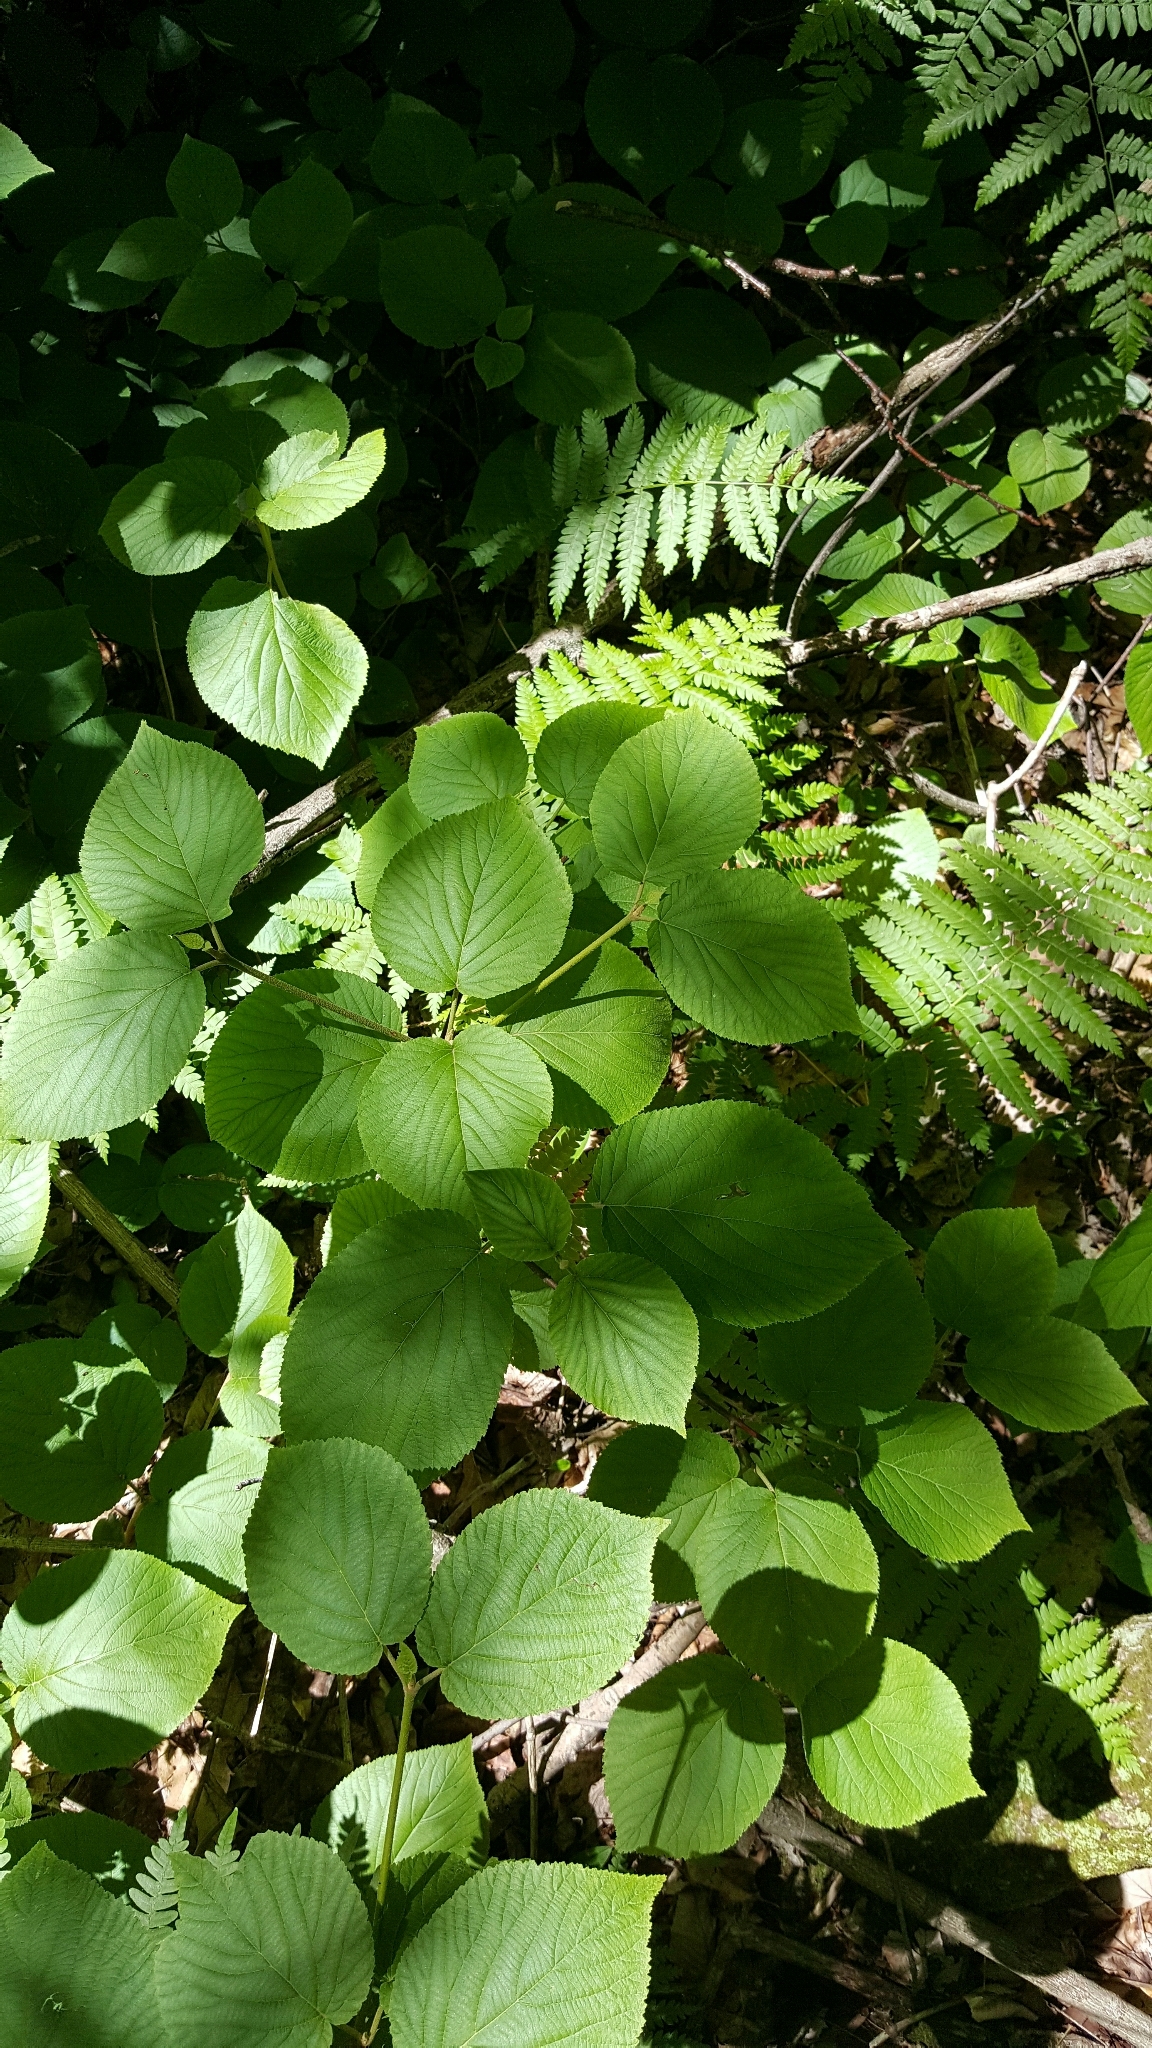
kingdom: Plantae
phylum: Tracheophyta
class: Magnoliopsida
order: Dipsacales
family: Viburnaceae
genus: Viburnum
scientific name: Viburnum lantanoides
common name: Hobblebush
